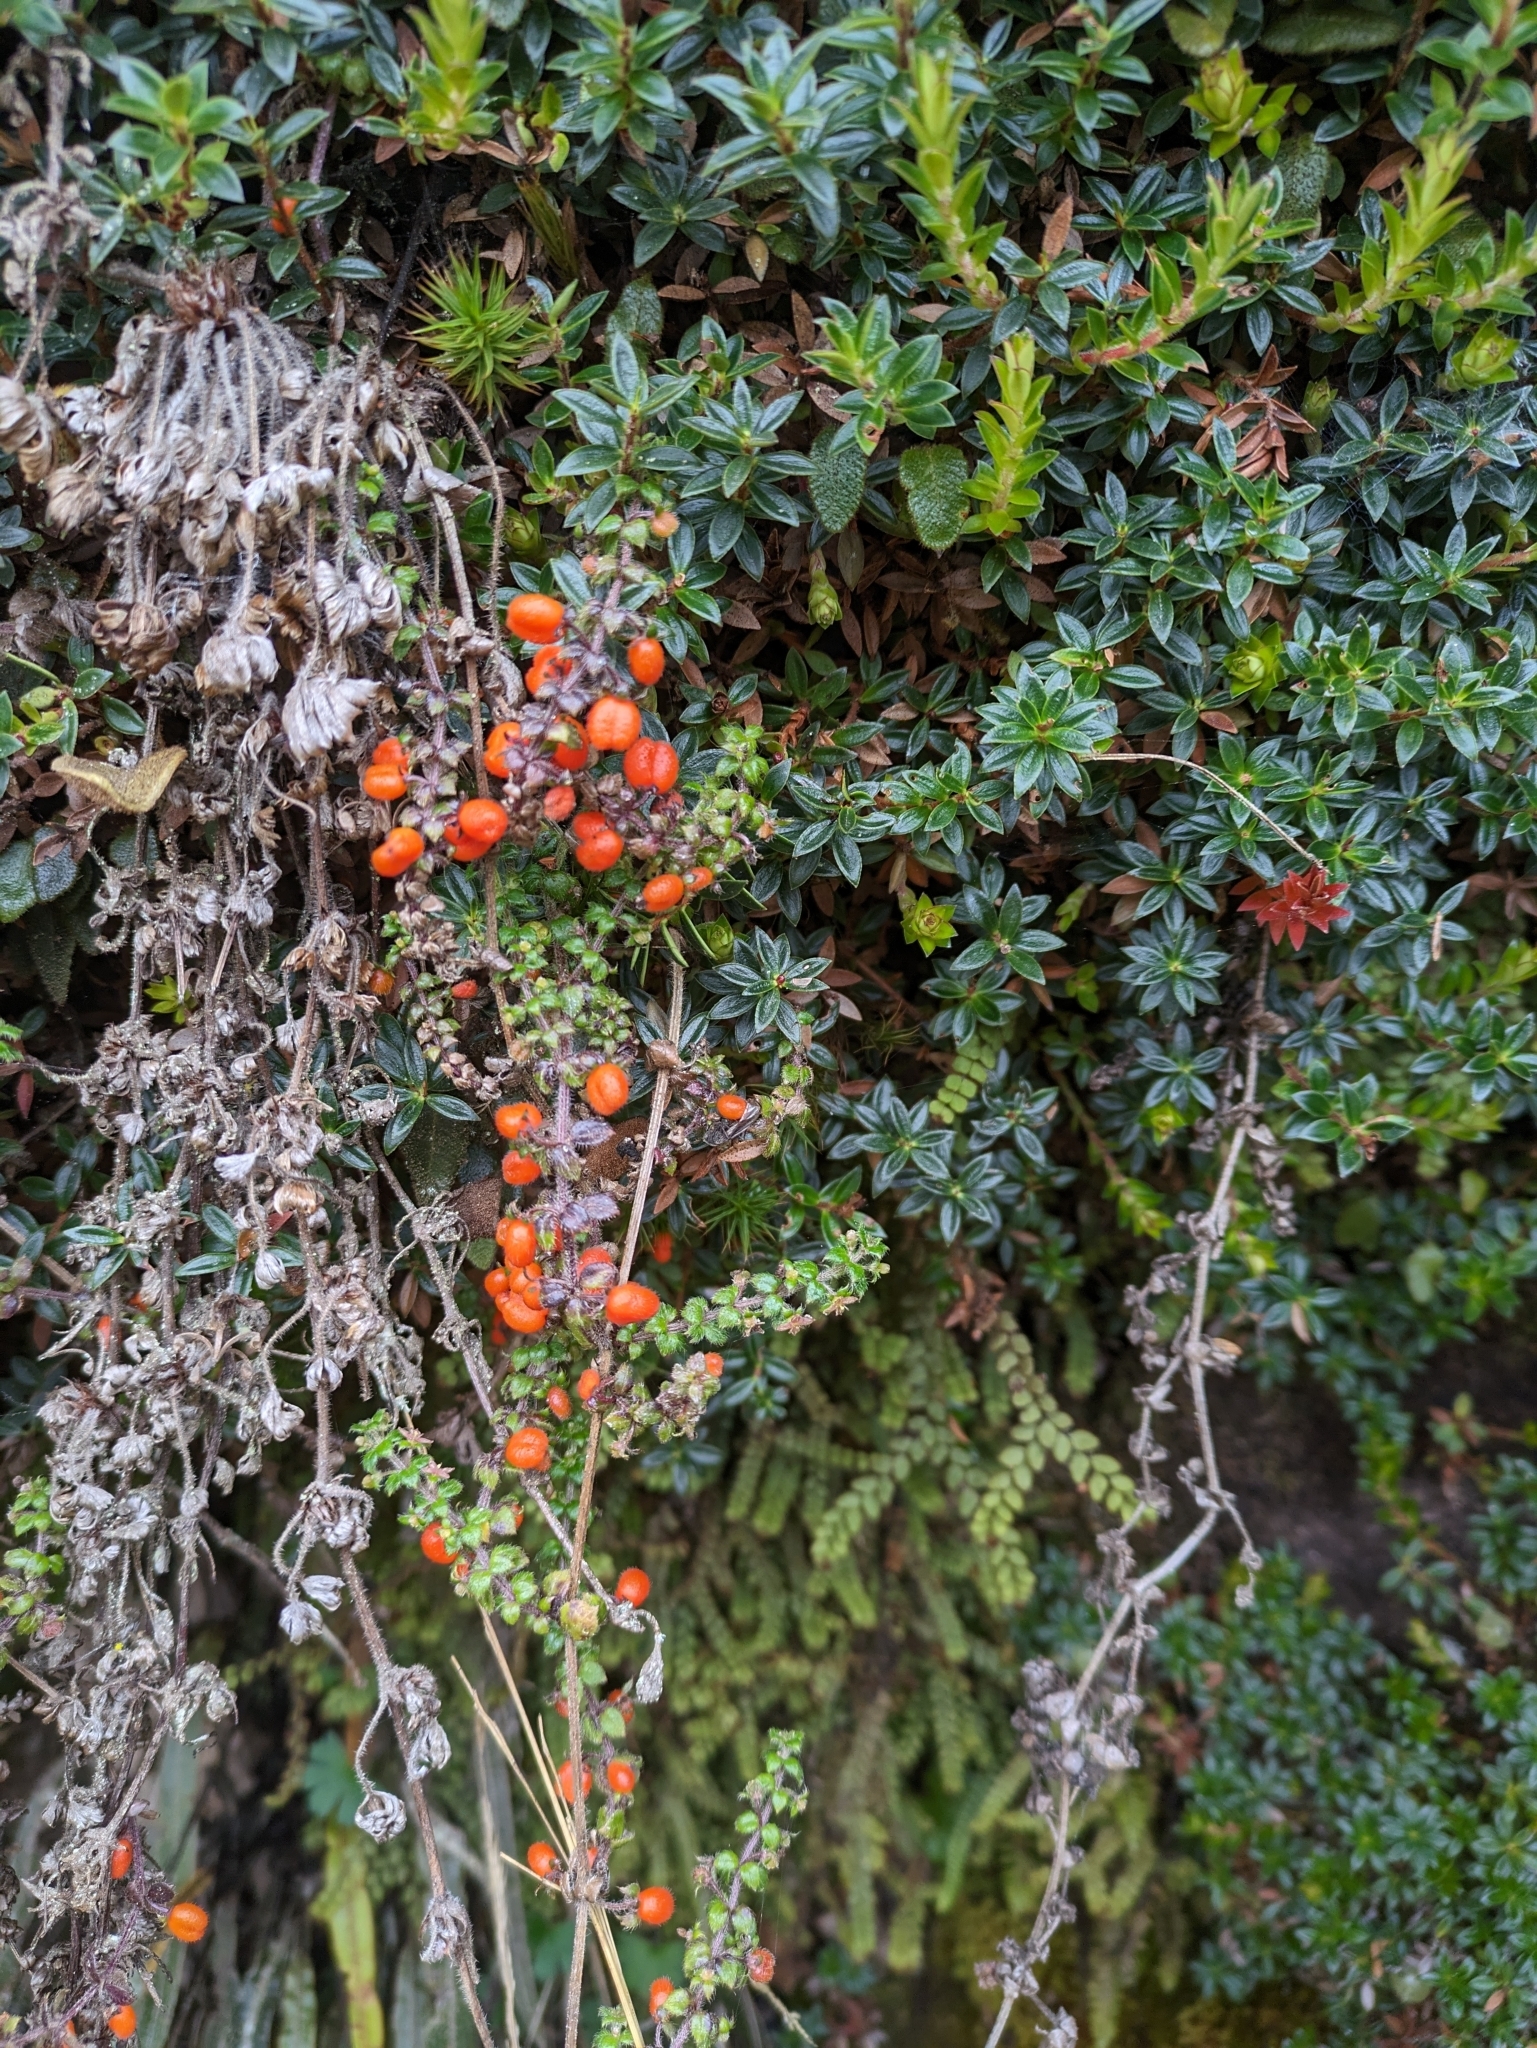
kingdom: Plantae
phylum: Tracheophyta
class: Magnoliopsida
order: Gentianales
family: Rubiaceae
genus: Galium
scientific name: Galium hypocarpium
